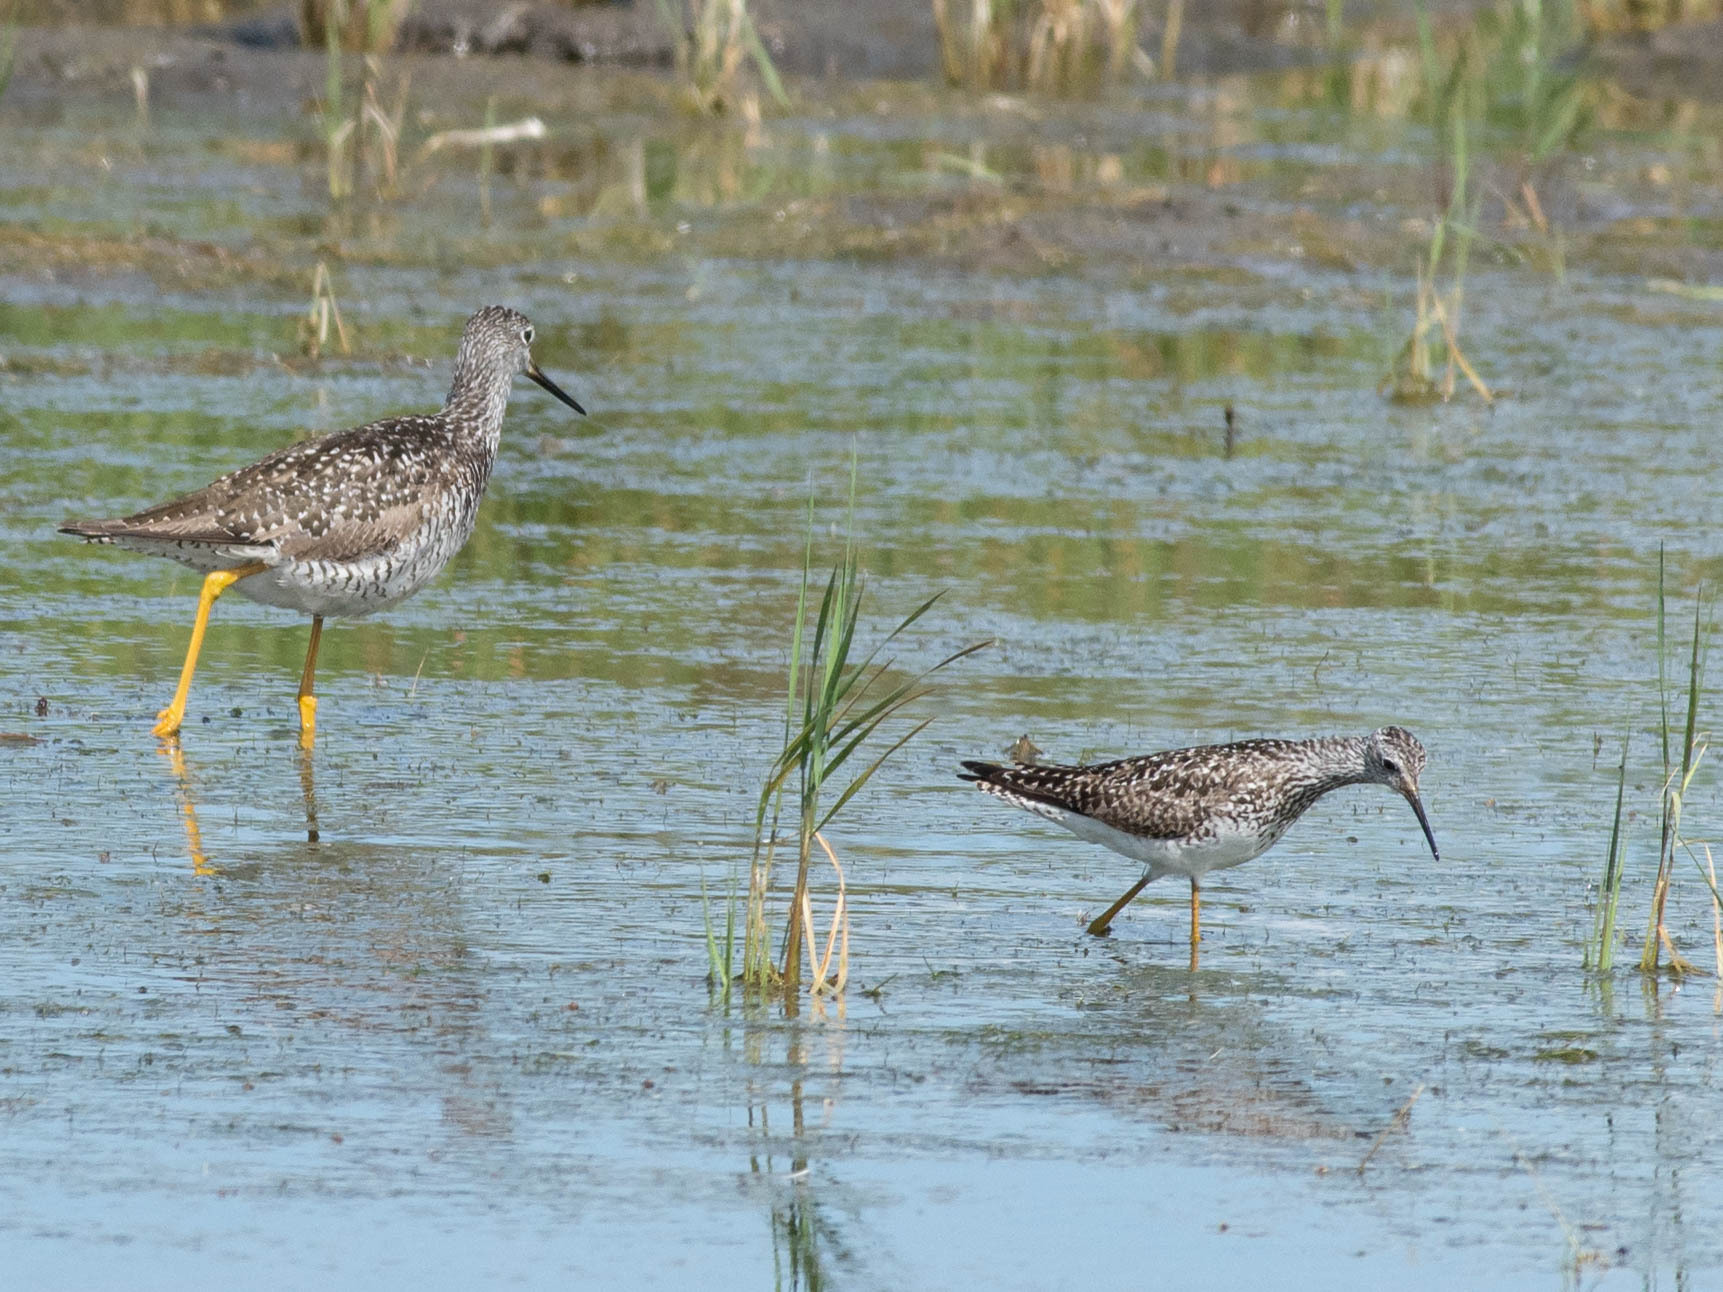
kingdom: Animalia
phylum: Chordata
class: Aves
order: Charadriiformes
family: Scolopacidae
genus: Tringa
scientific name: Tringa flavipes
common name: Lesser yellowlegs
